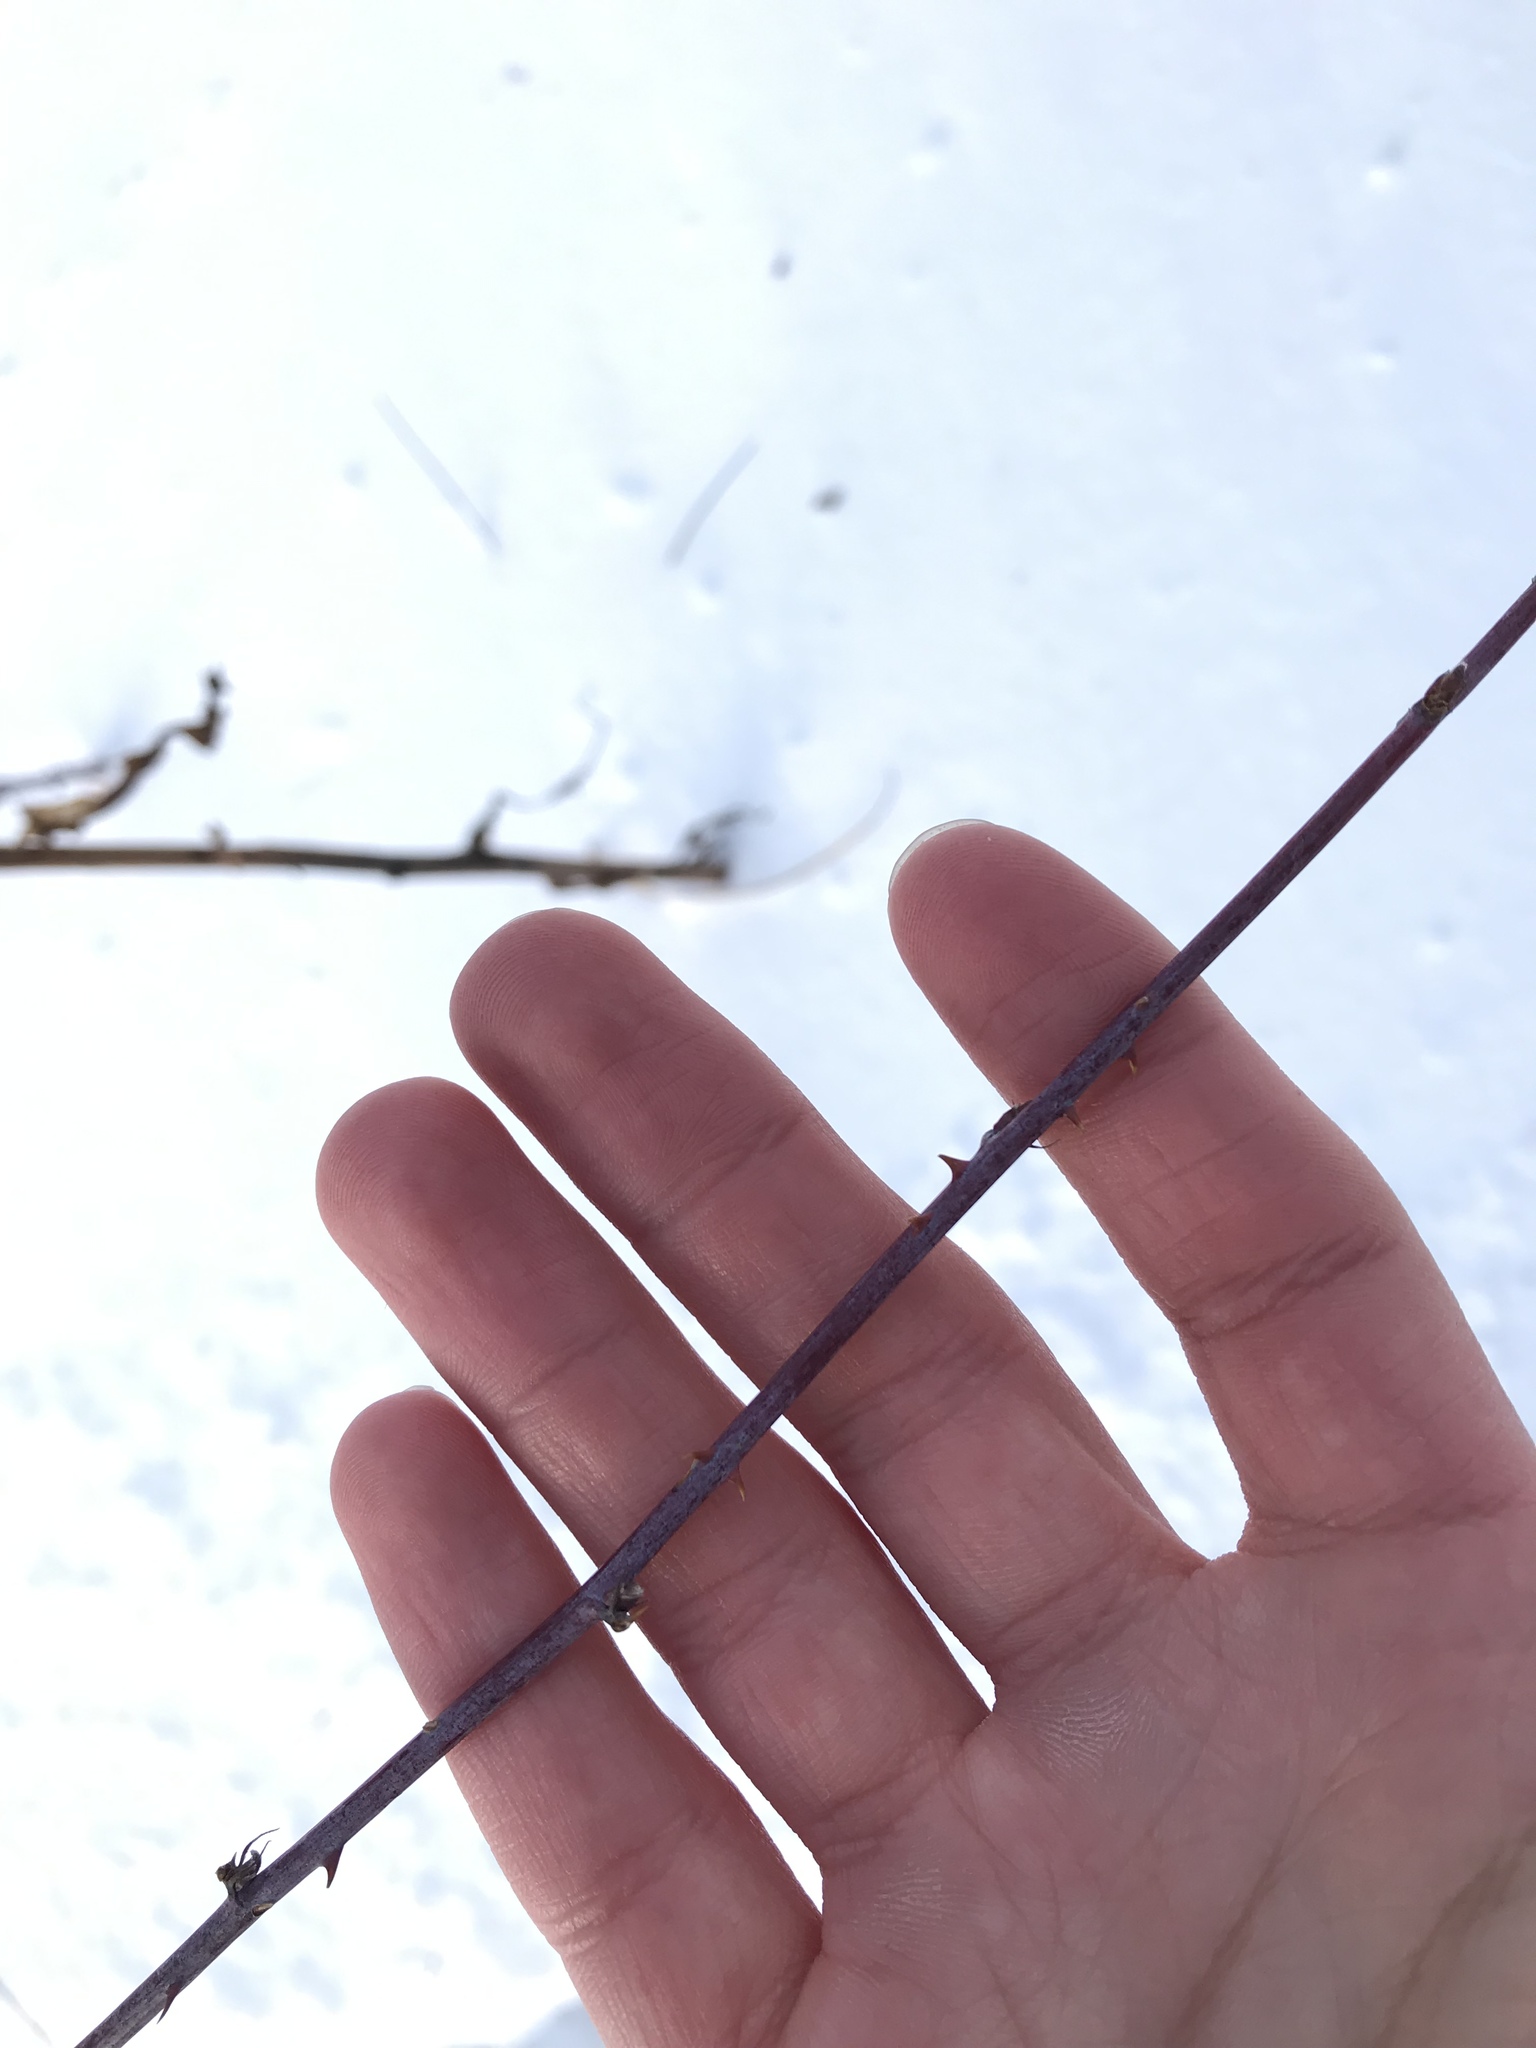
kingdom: Plantae
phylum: Tracheophyta
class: Magnoliopsida
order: Rosales
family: Rosaceae
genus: Rubus
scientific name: Rubus occidentalis
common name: Black raspberry
